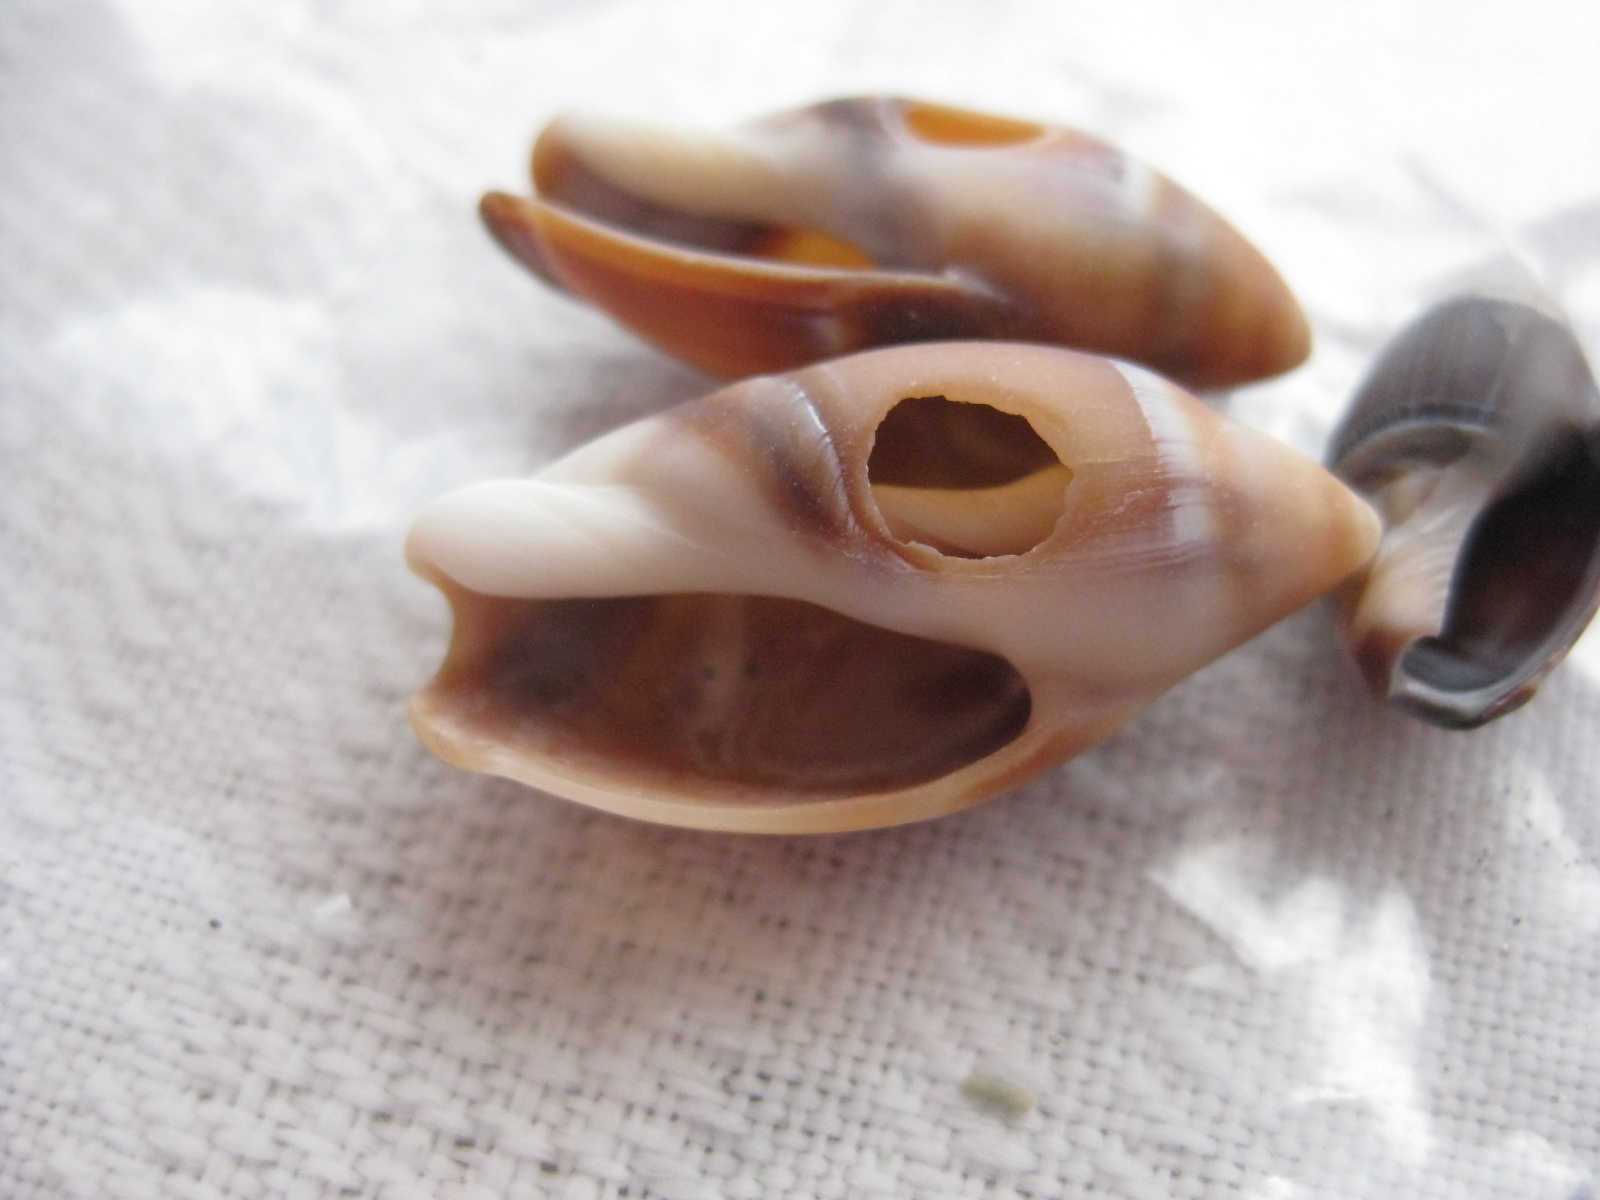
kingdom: Animalia
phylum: Mollusca
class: Gastropoda
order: Neogastropoda
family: Ancillariidae
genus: Amalda
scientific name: Amalda australis
